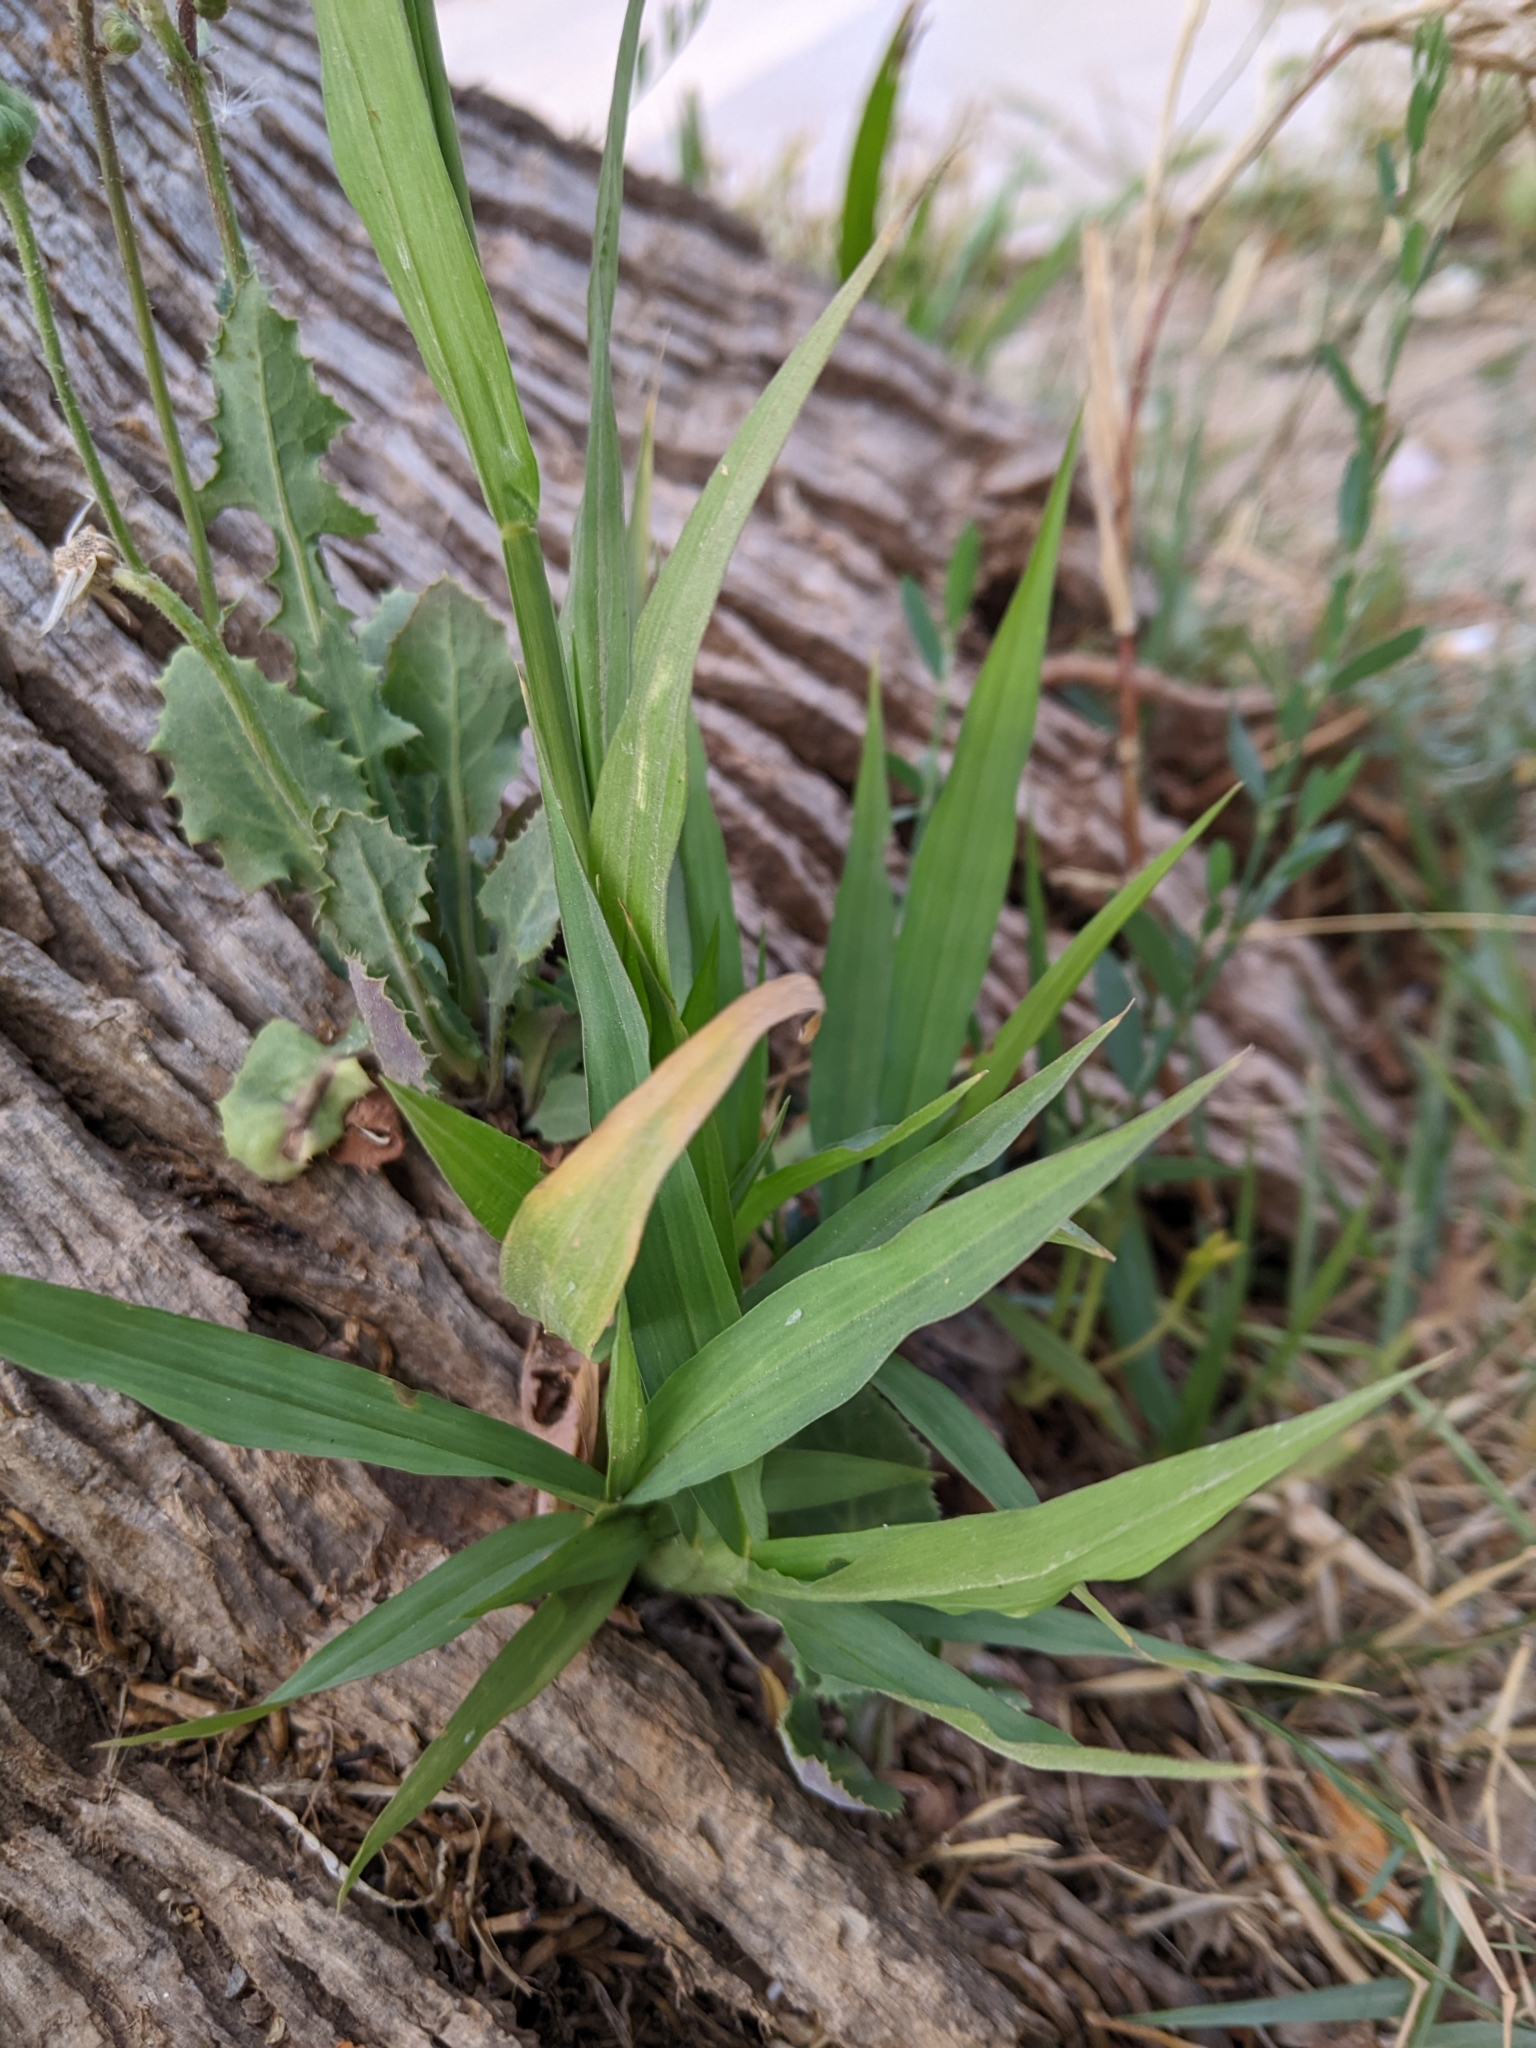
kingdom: Plantae
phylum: Tracheophyta
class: Liliopsida
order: Poales
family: Poaceae
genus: Setaria
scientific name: Setaria verticillata
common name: Hooked bristlegrass
